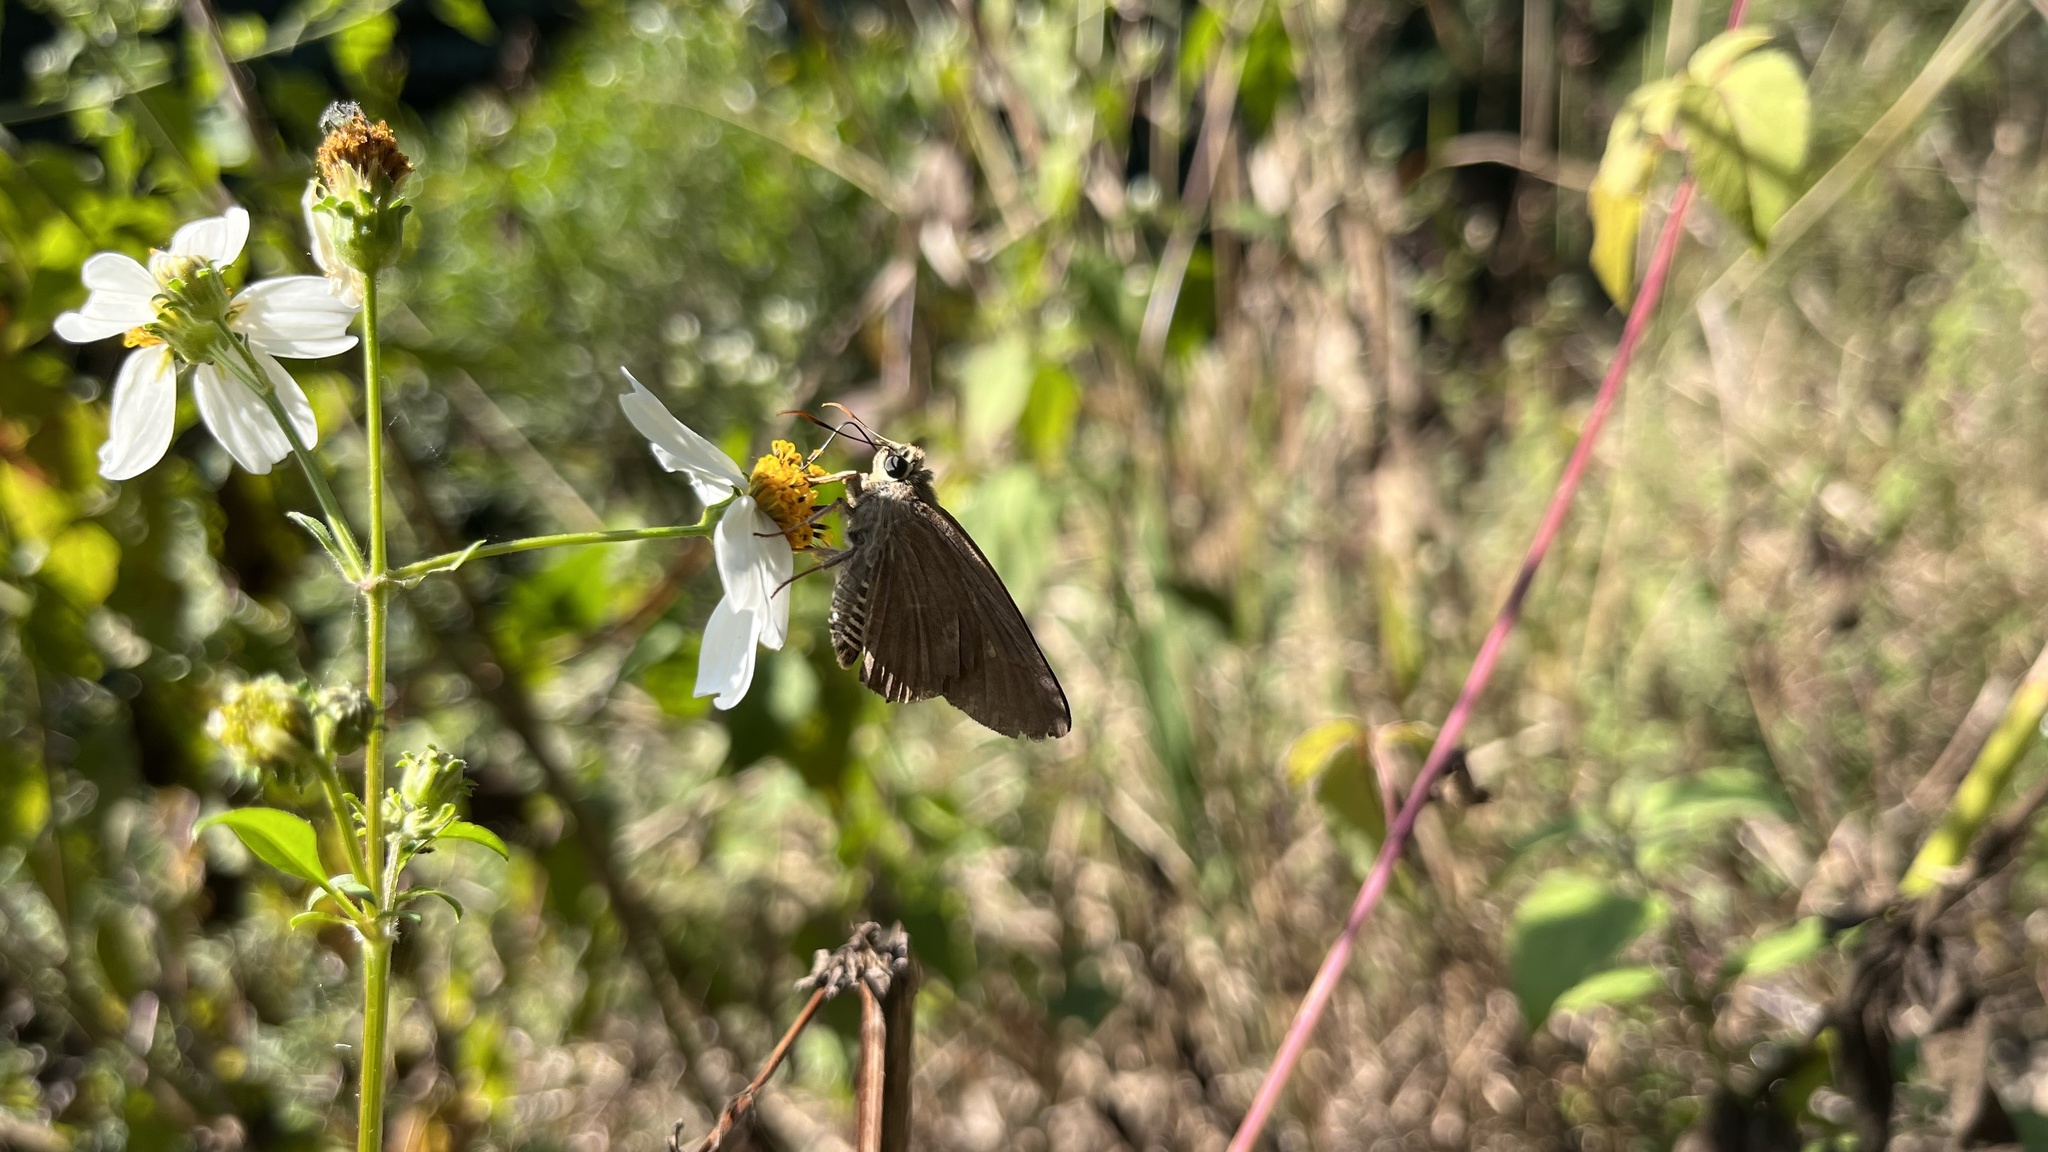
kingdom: Animalia
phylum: Arthropoda
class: Insecta
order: Lepidoptera
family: Hesperiidae
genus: Badamia
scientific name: Badamia exclamationis
